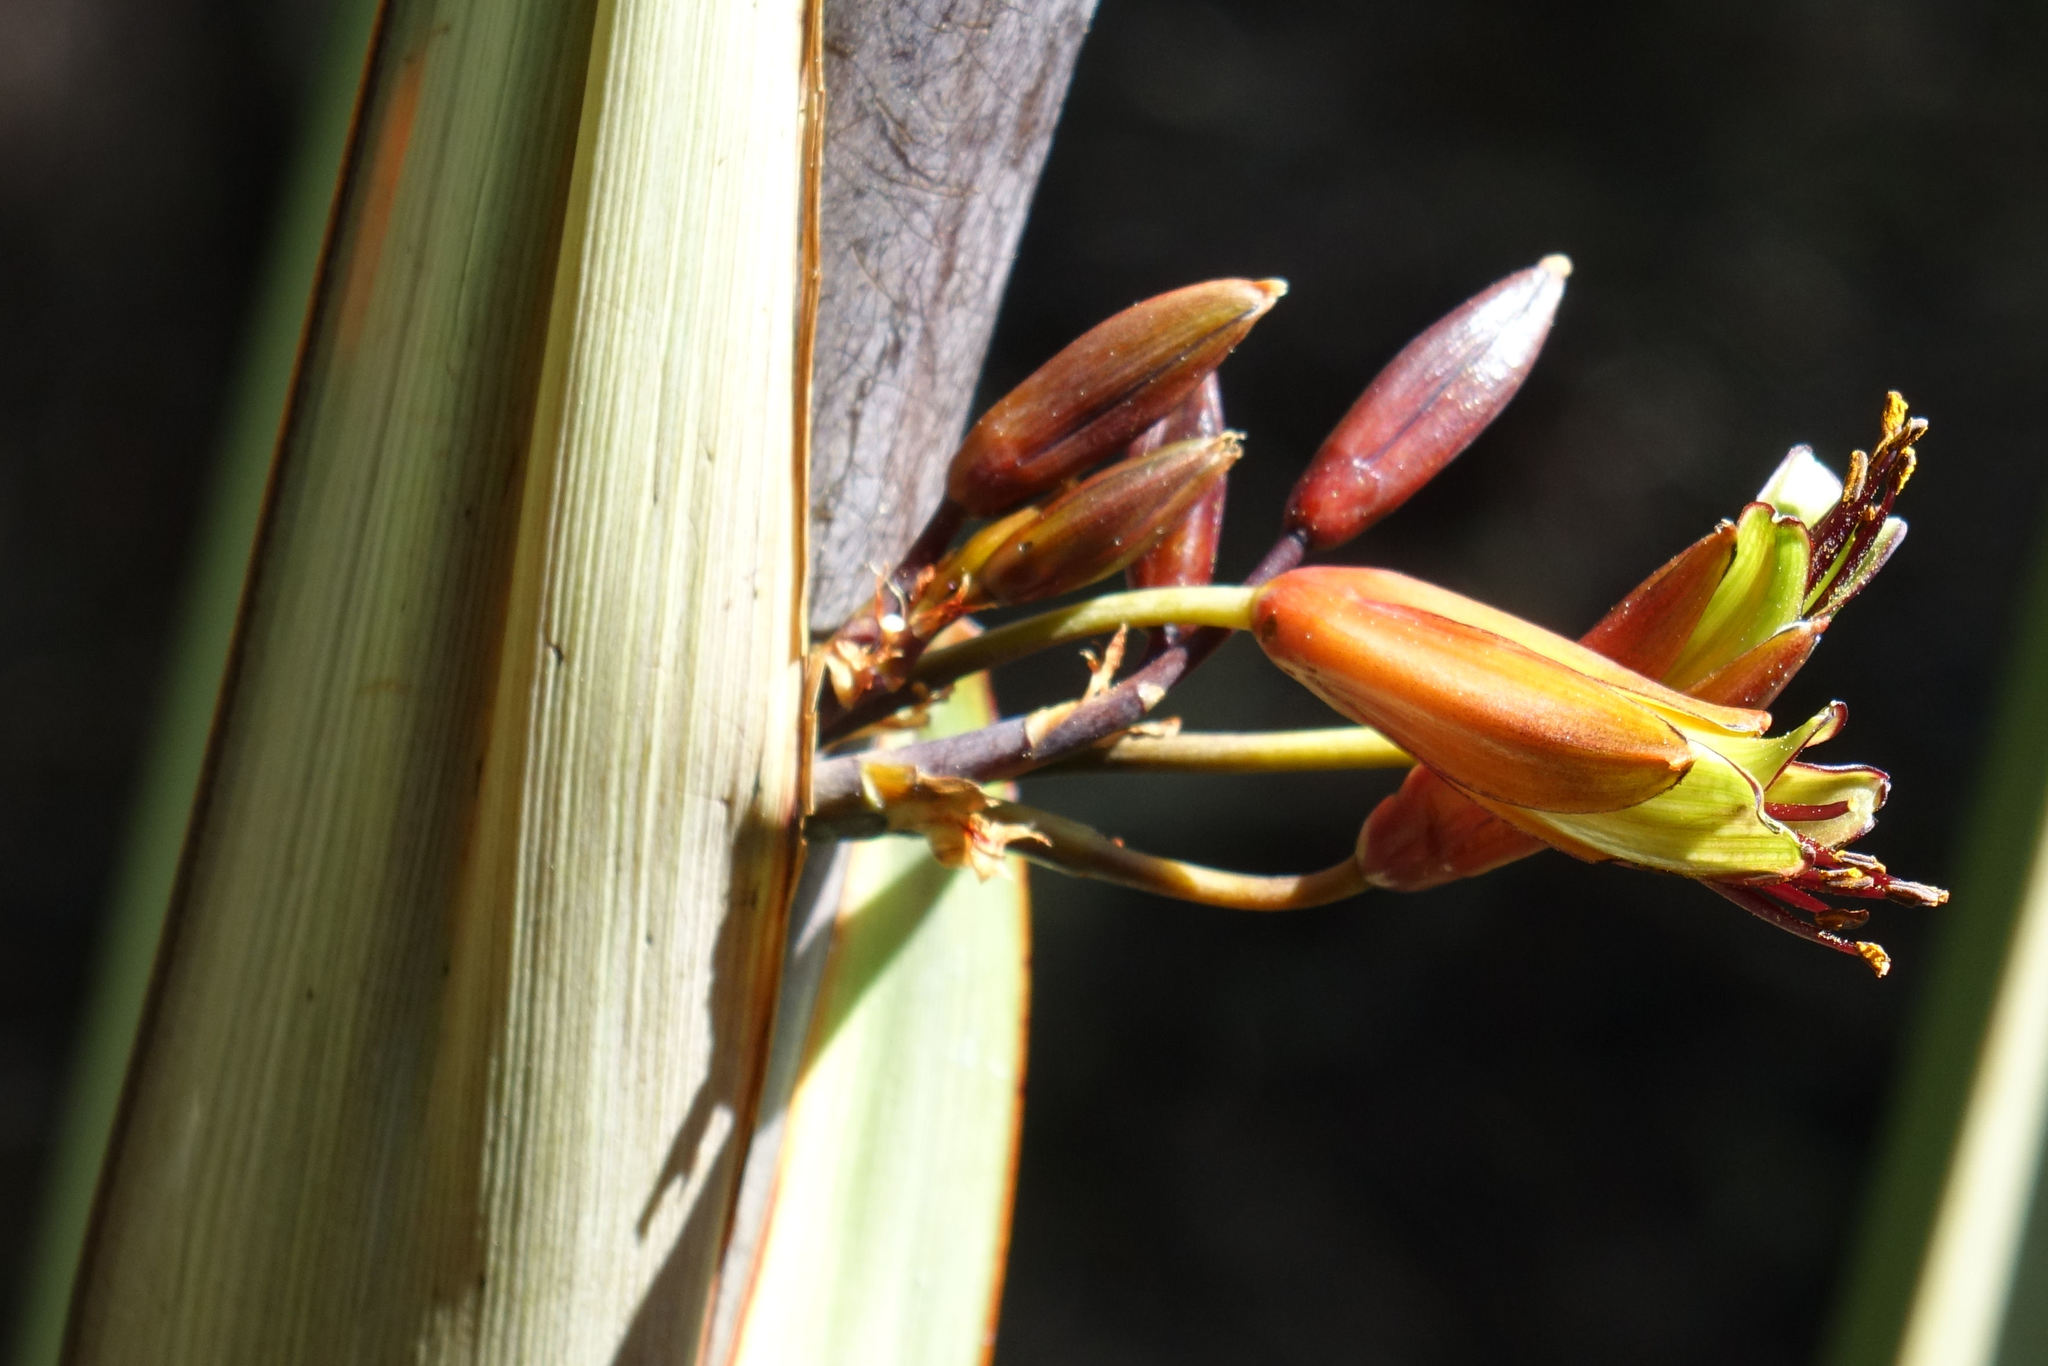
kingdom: Plantae
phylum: Tracheophyta
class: Liliopsida
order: Asparagales
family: Asphodelaceae
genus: Phormium
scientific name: Phormium colensoi
